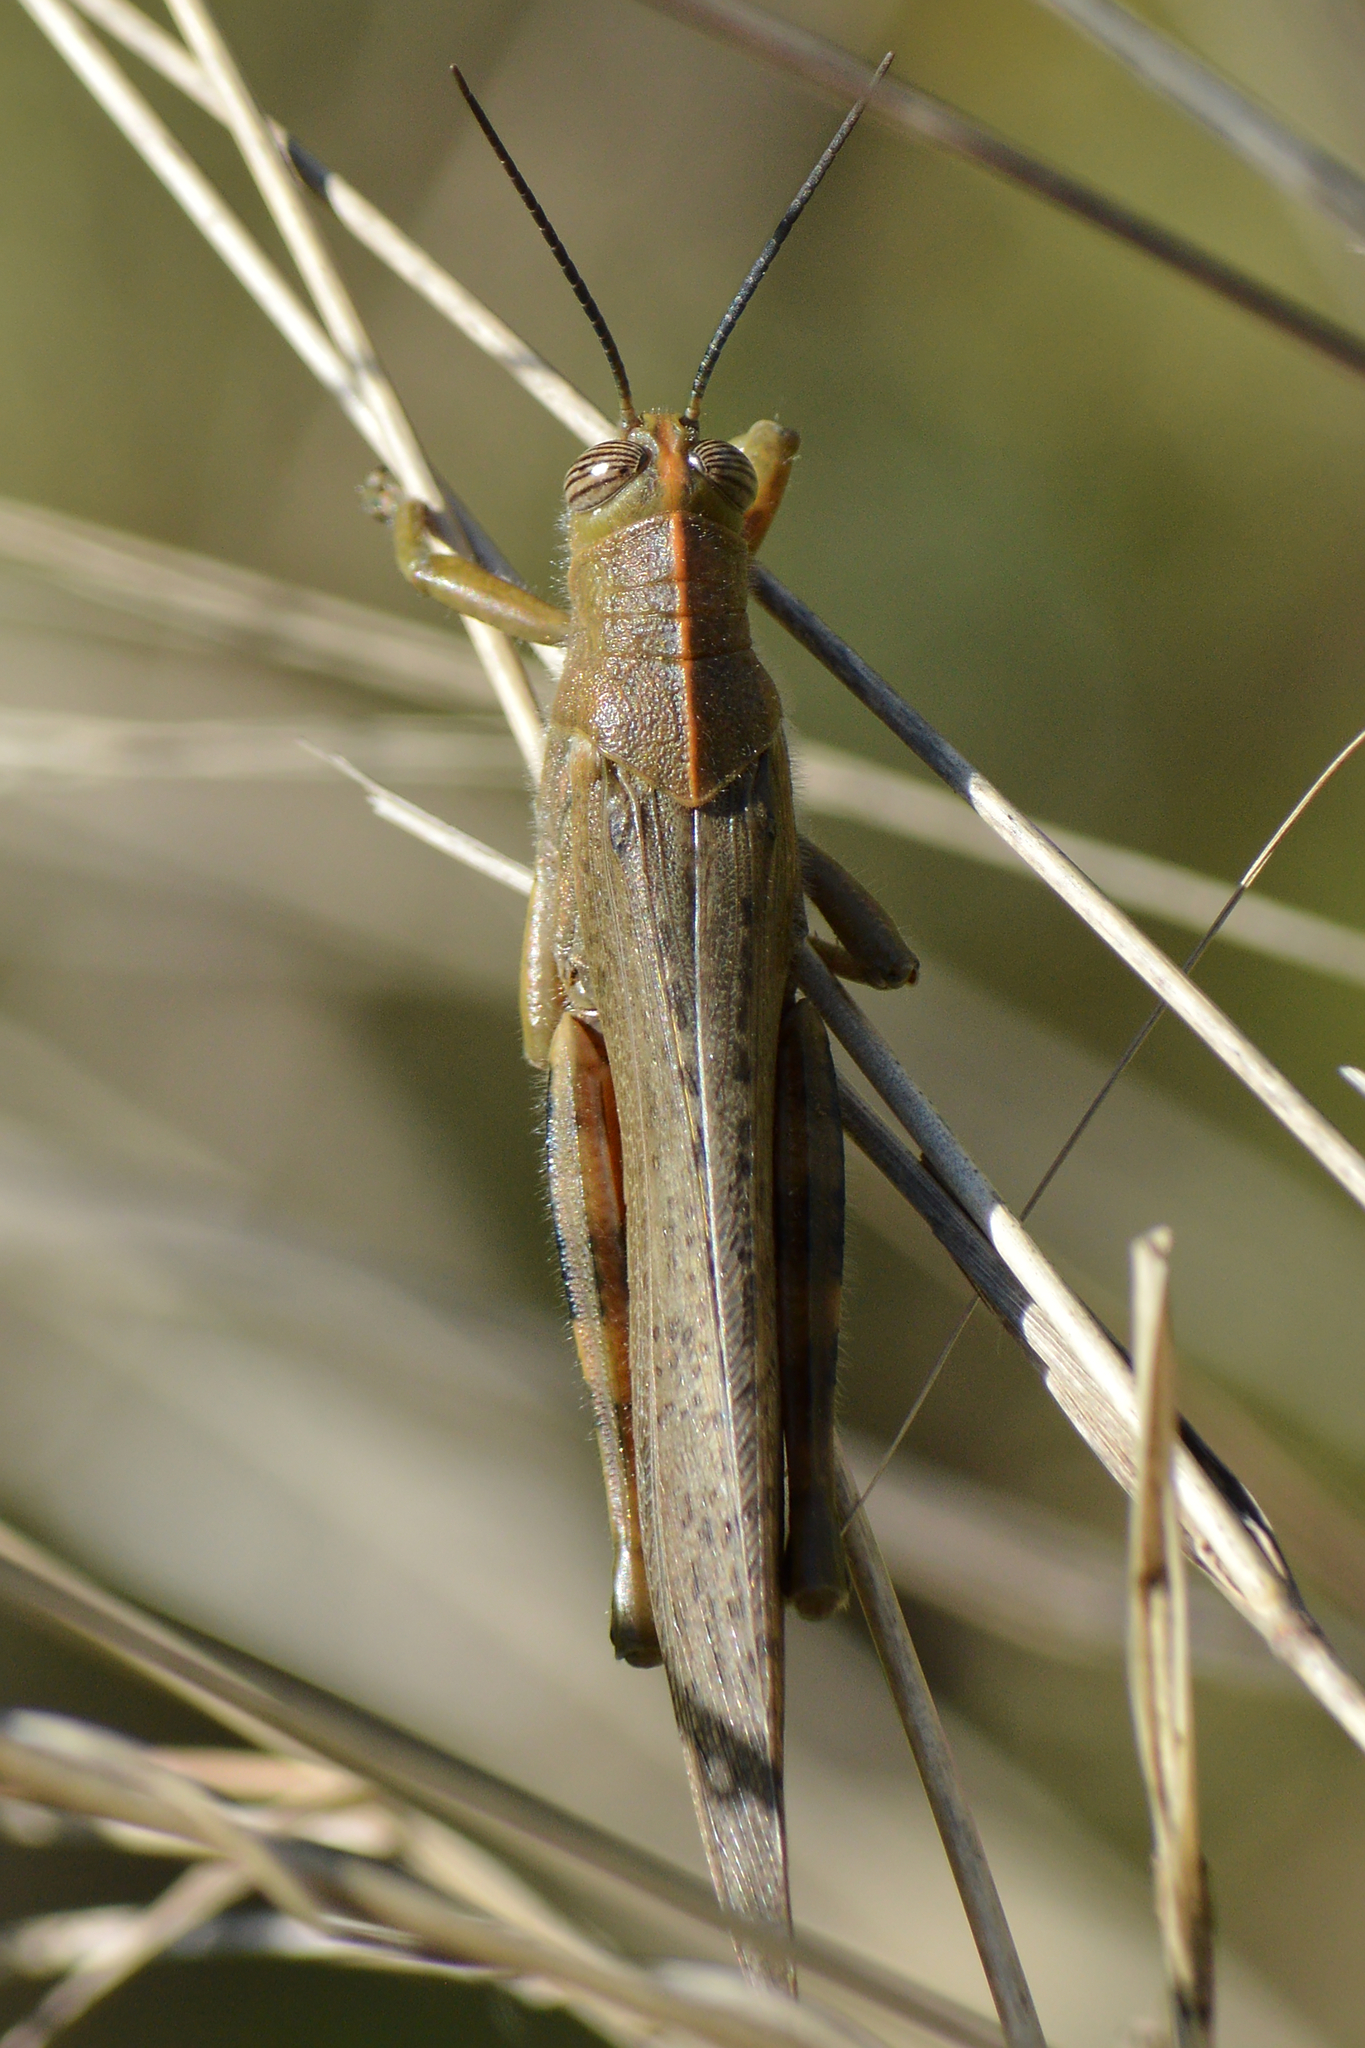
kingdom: Animalia
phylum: Arthropoda
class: Insecta
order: Orthoptera
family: Acrididae
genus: Anacridium
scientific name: Anacridium aegyptium
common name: Egyptian grasshopper
